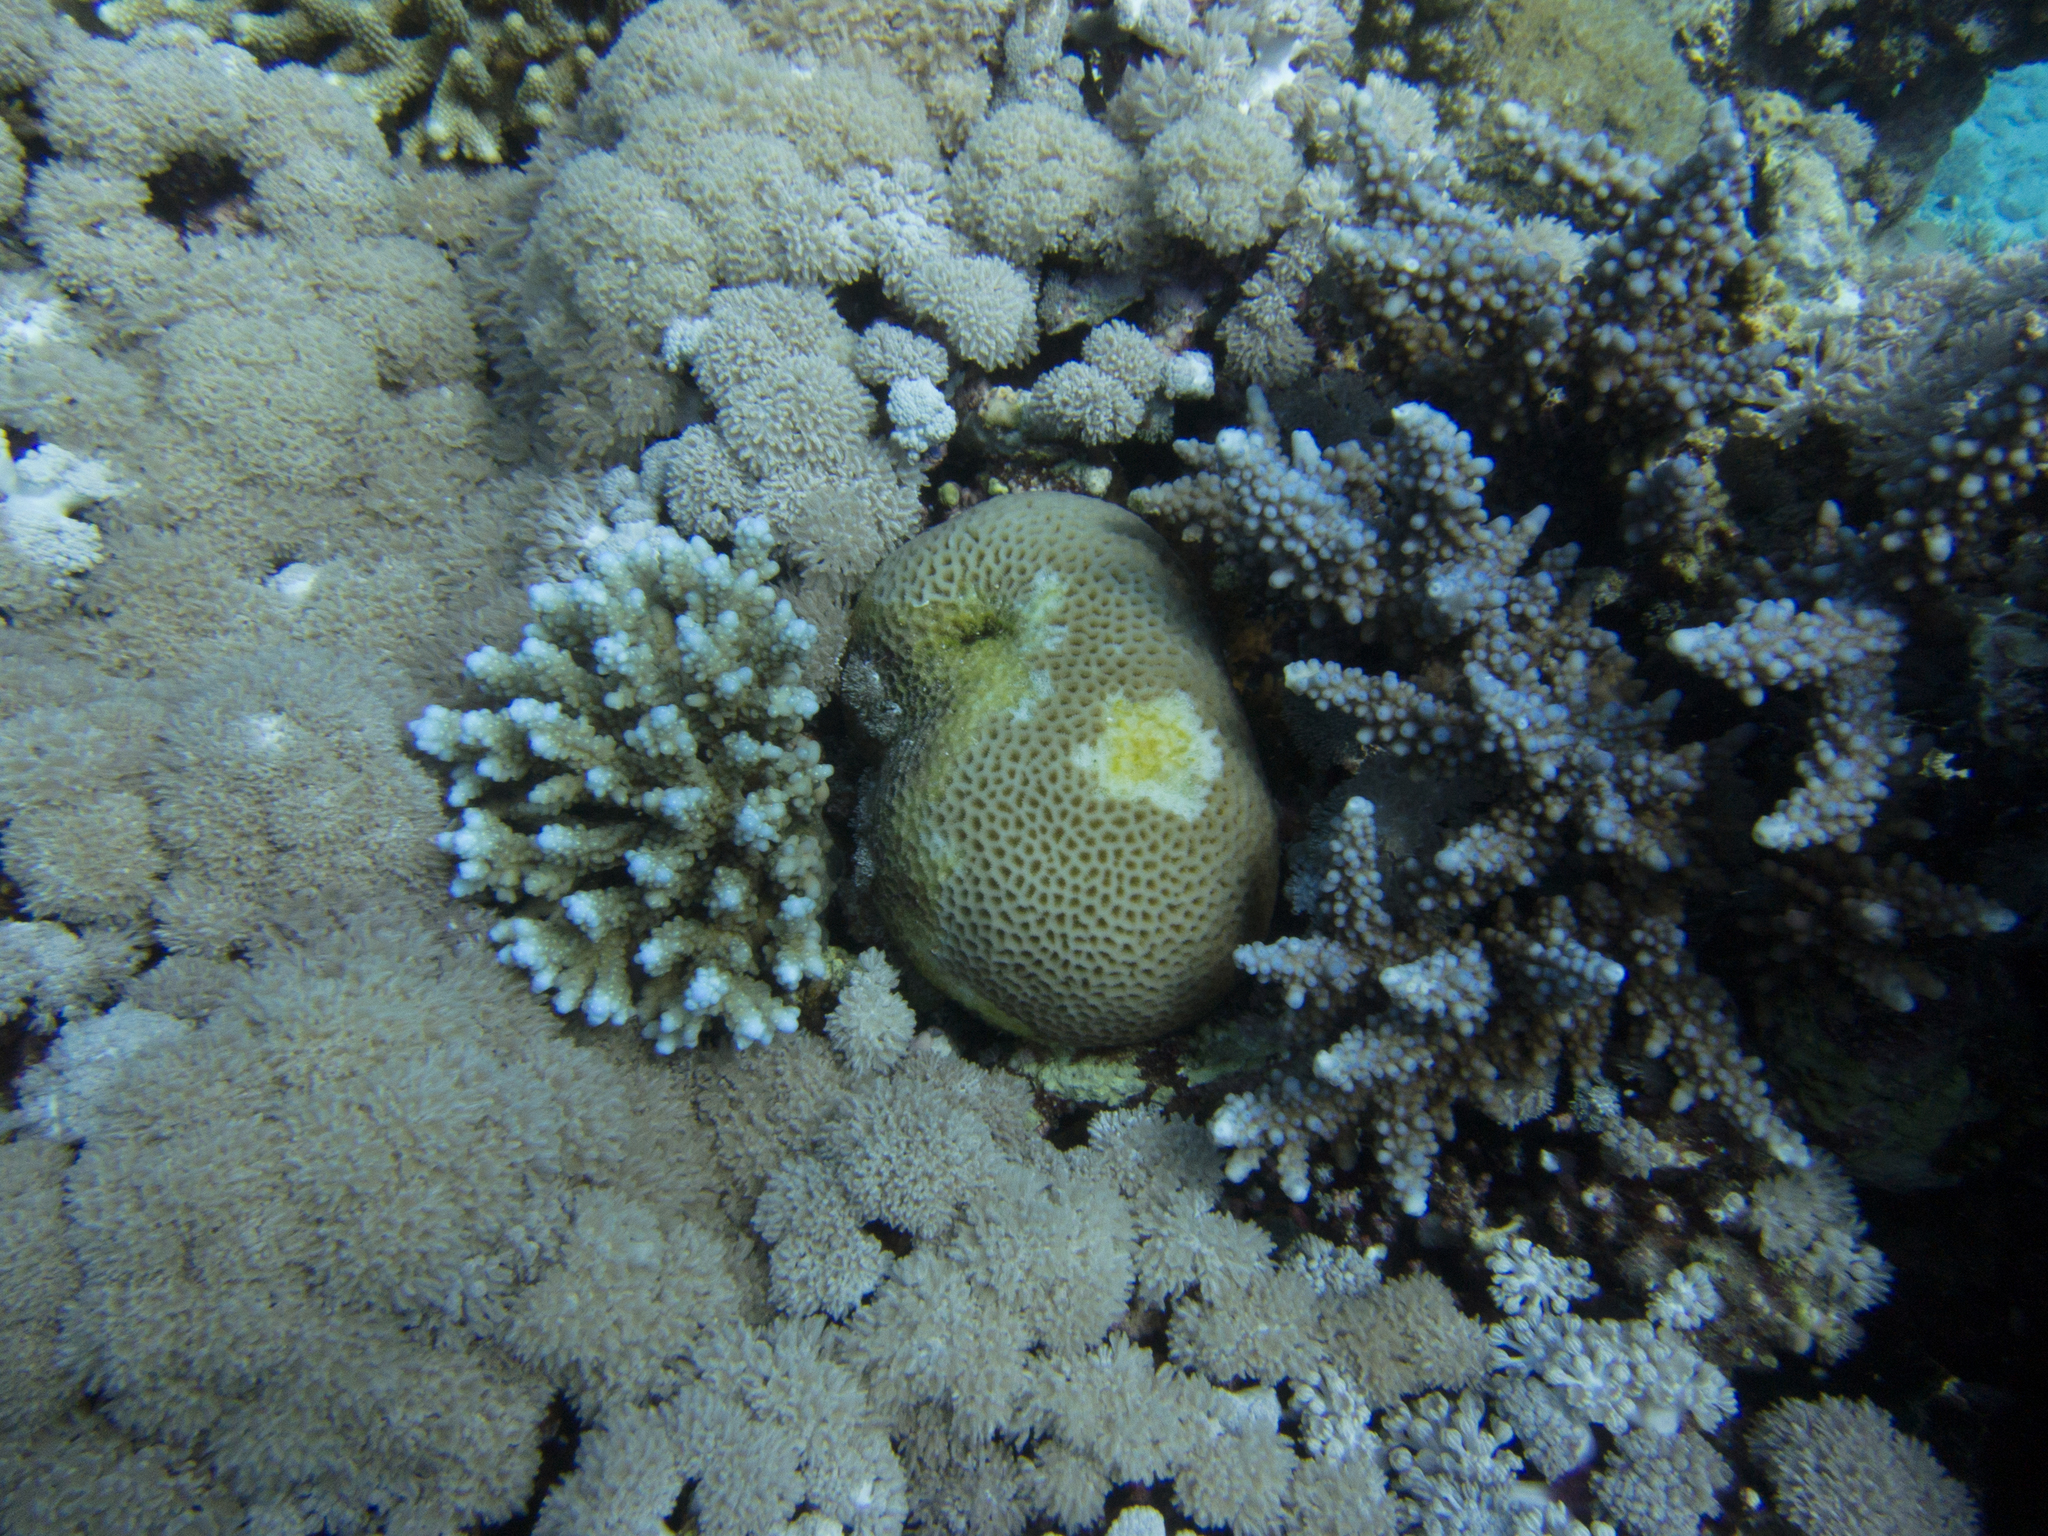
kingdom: Animalia
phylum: Cnidaria
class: Anthozoa
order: Scleractinia
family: Acroporidae
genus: Acropora
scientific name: Acropora hemprichii
